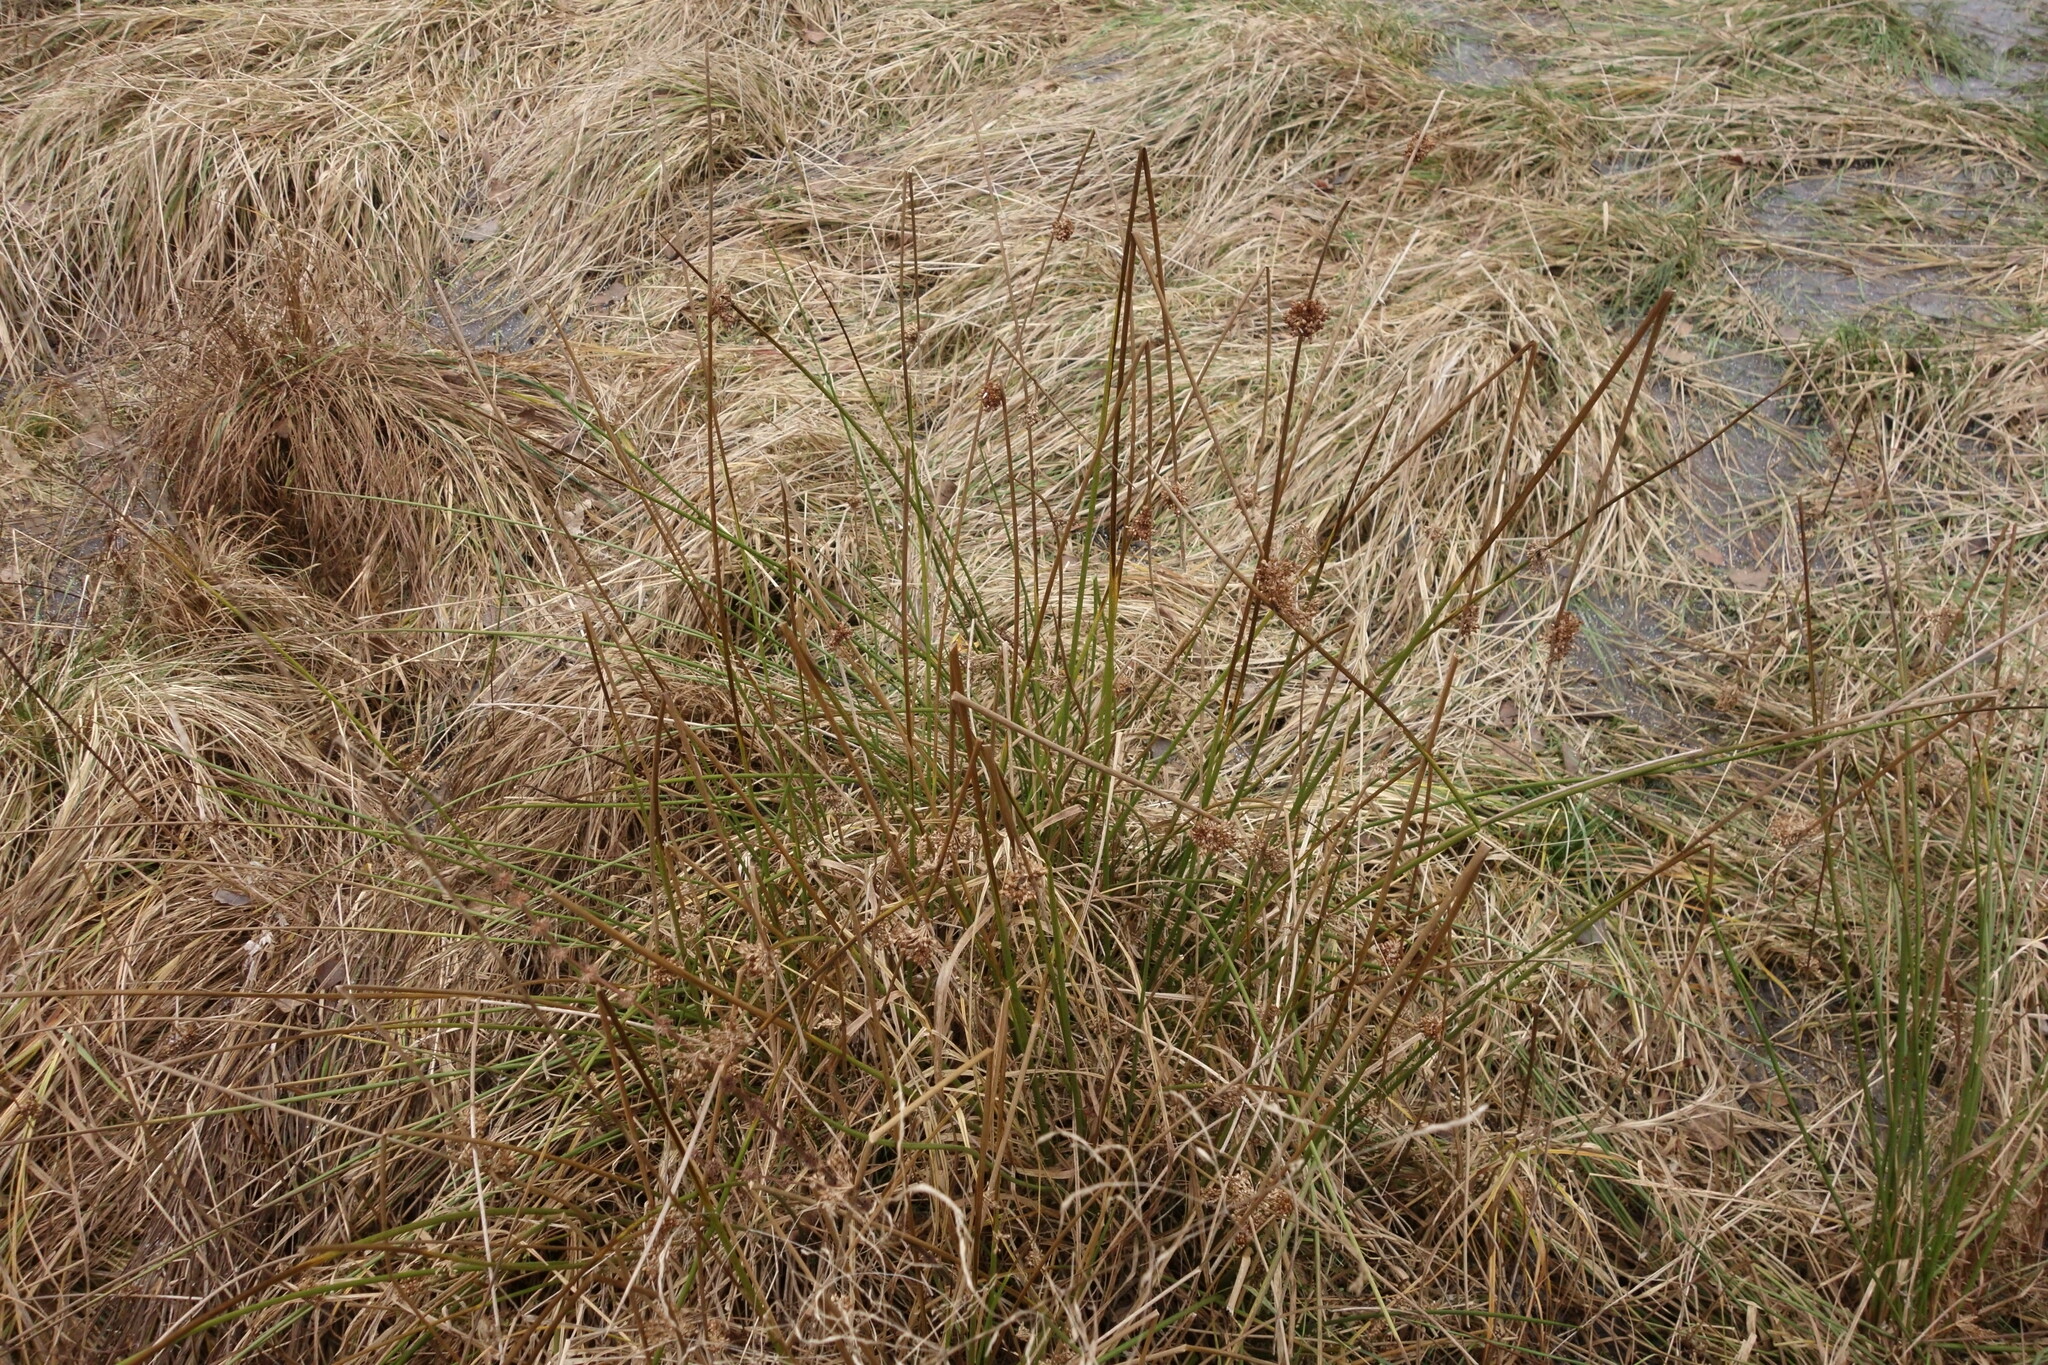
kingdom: Plantae
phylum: Tracheophyta
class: Liliopsida
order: Poales
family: Juncaceae
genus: Juncus
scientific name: Juncus effusus
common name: Soft rush
